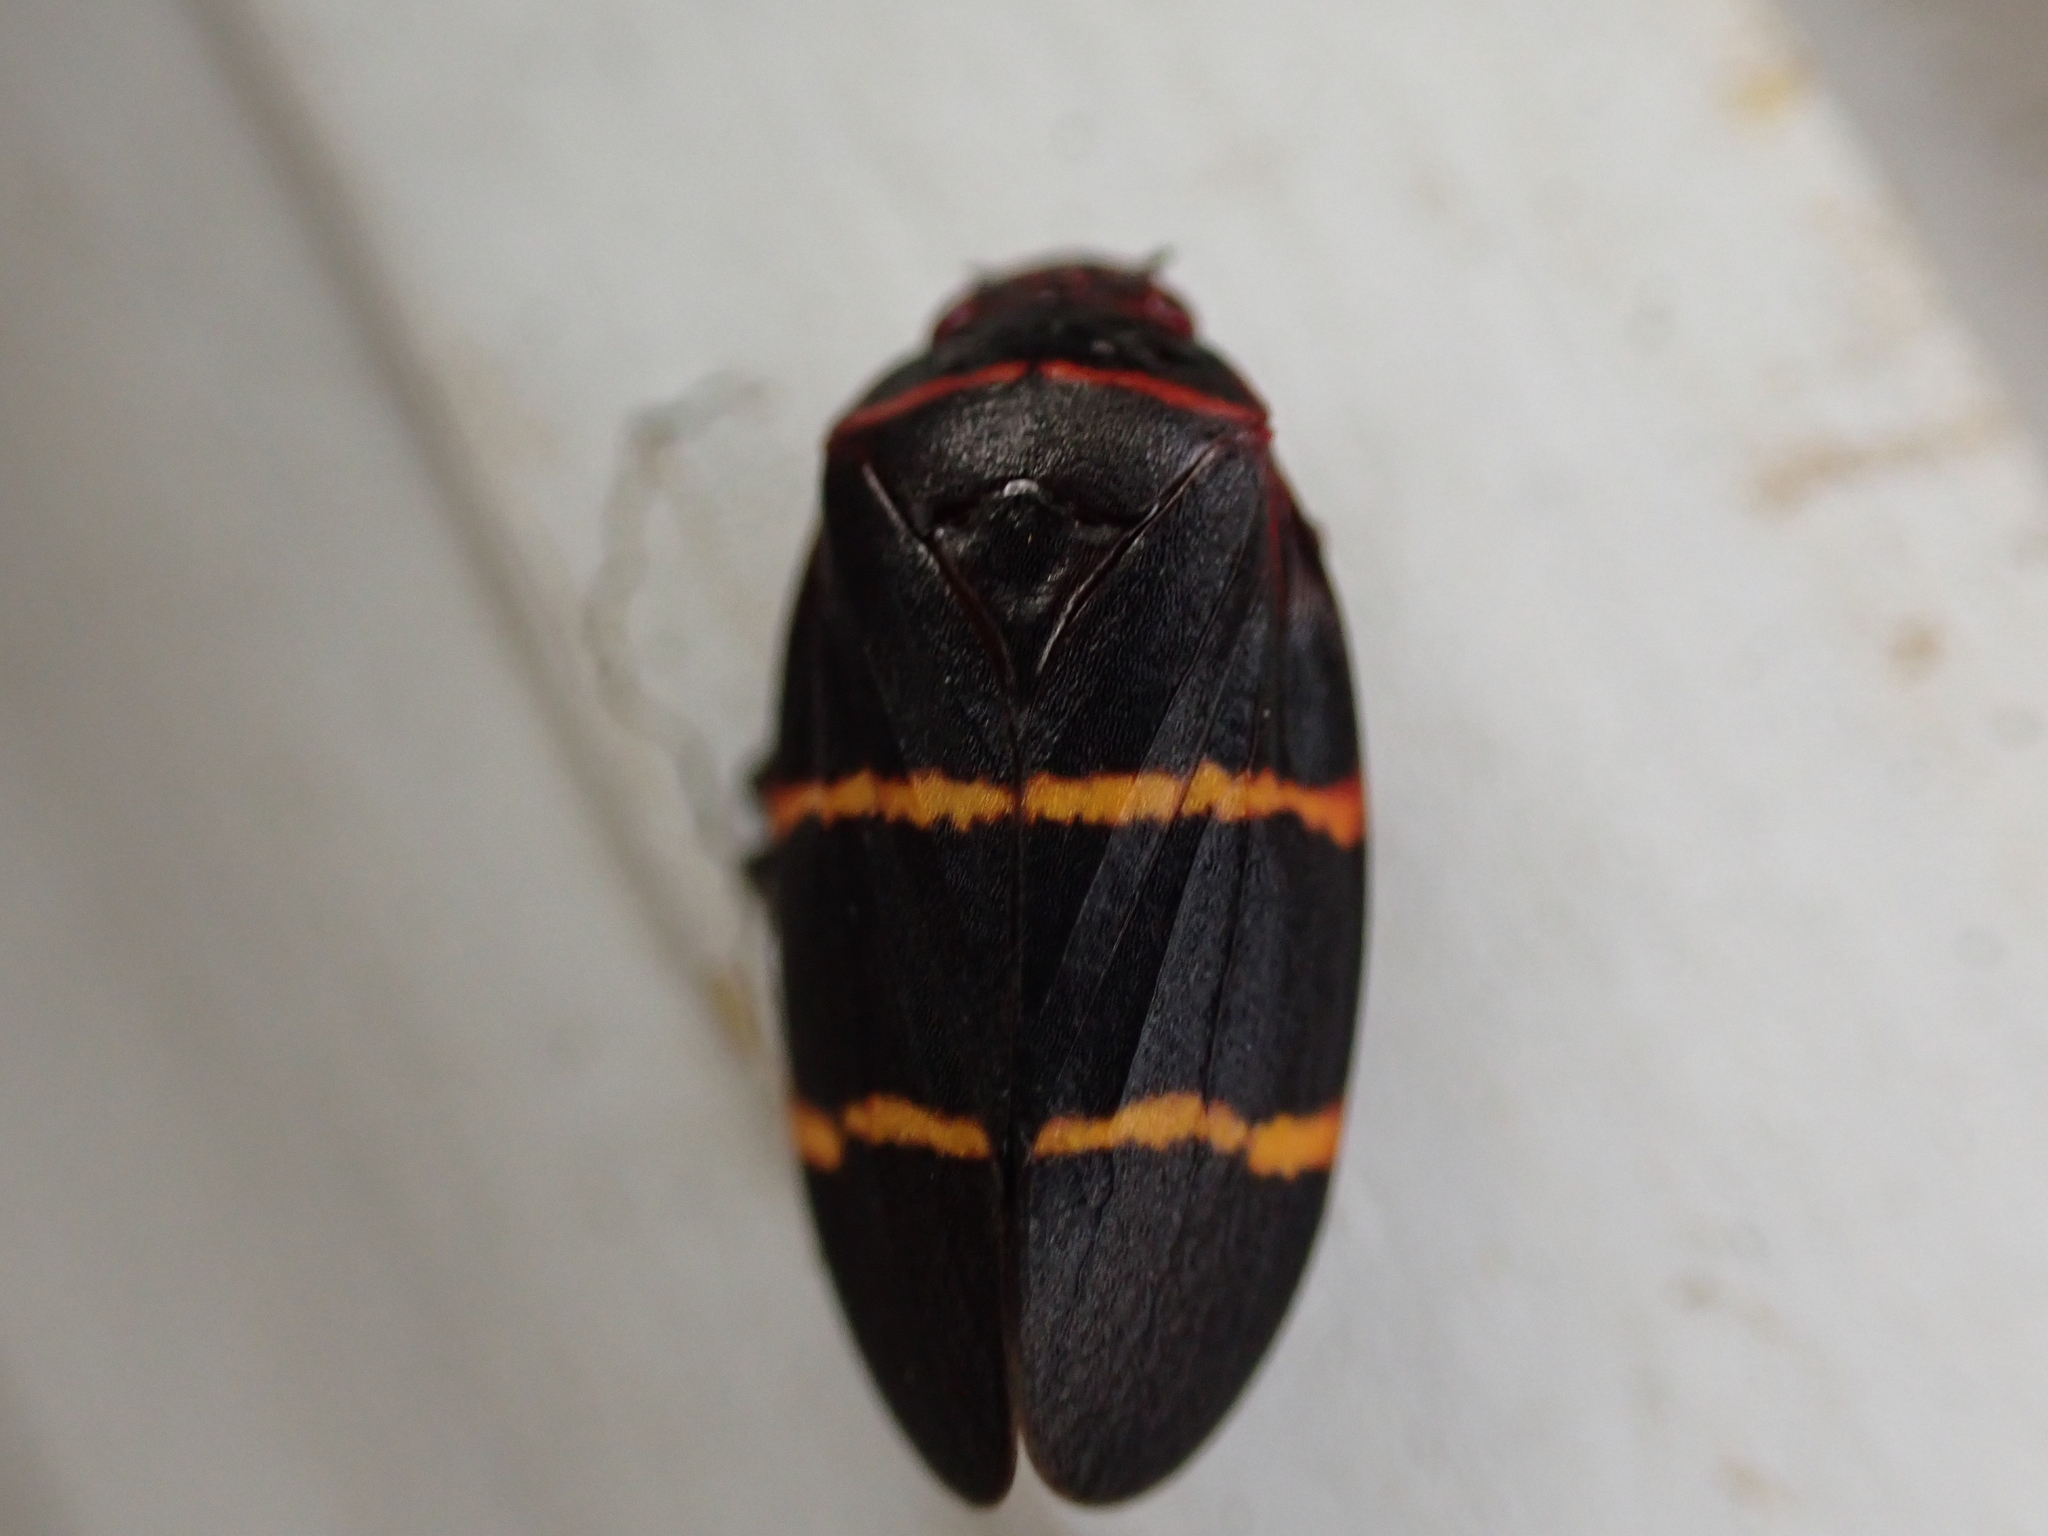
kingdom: Animalia
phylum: Arthropoda
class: Insecta
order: Hemiptera
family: Cercopidae
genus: Prosapia
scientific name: Prosapia bicincta
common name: Twolined spittlebug
